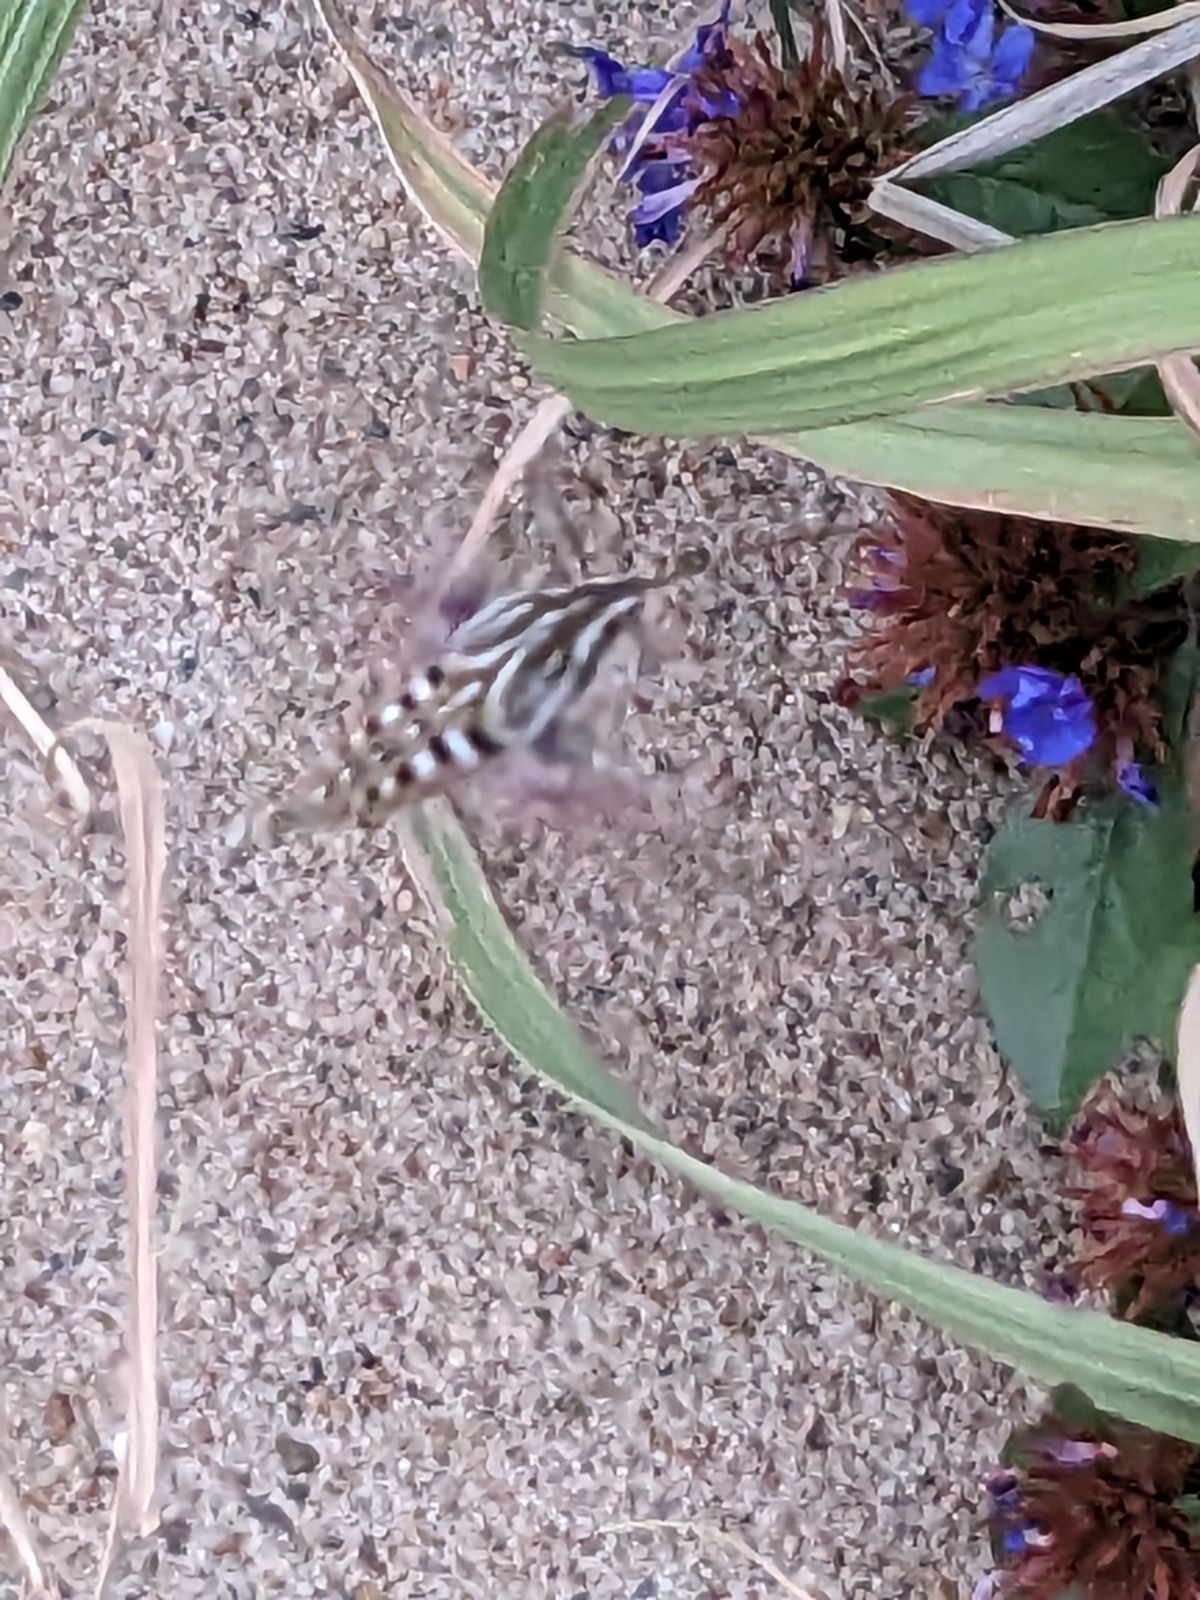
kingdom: Animalia
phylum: Arthropoda
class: Insecta
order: Lepidoptera
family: Sphingidae
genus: Hyles
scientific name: Hyles lineata
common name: White-lined sphinx
